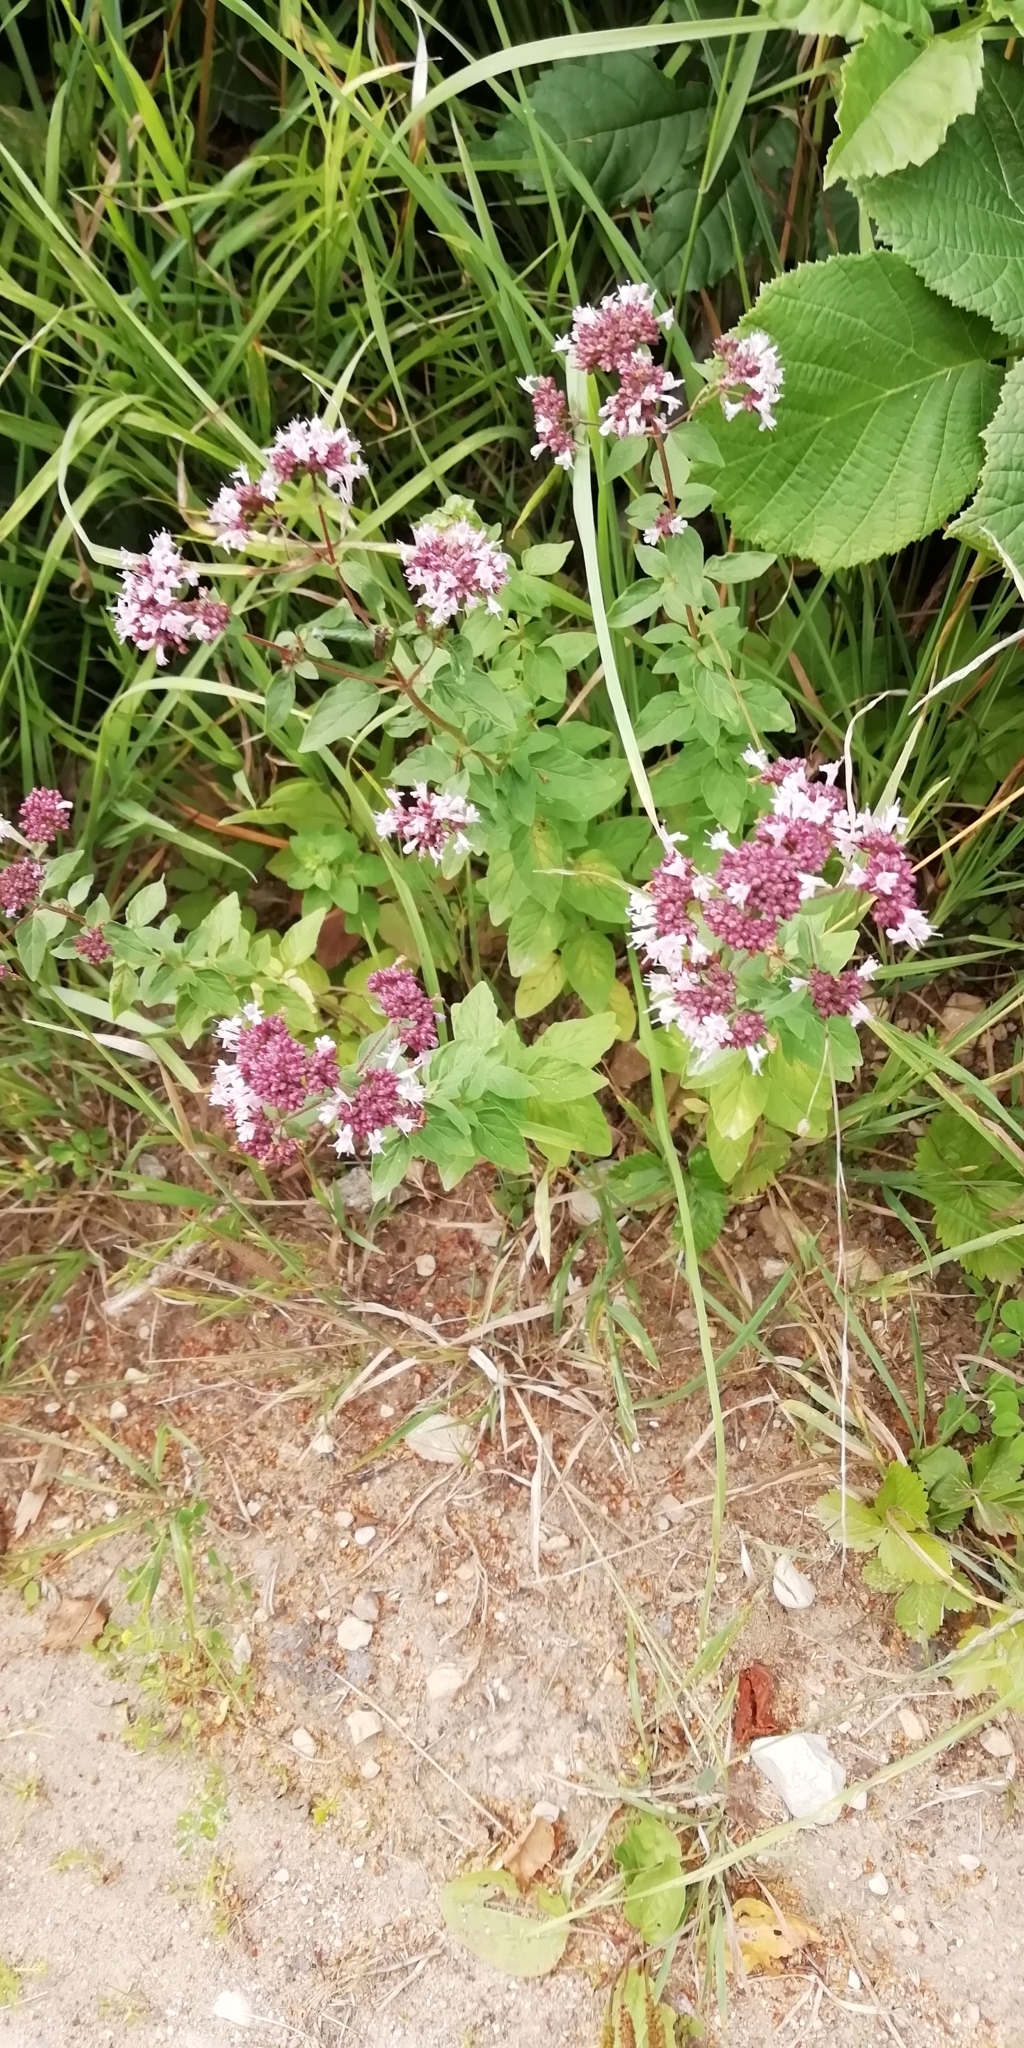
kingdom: Plantae
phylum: Tracheophyta
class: Magnoliopsida
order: Lamiales
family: Lamiaceae
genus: Origanum
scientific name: Origanum vulgare
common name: Wild marjoram
